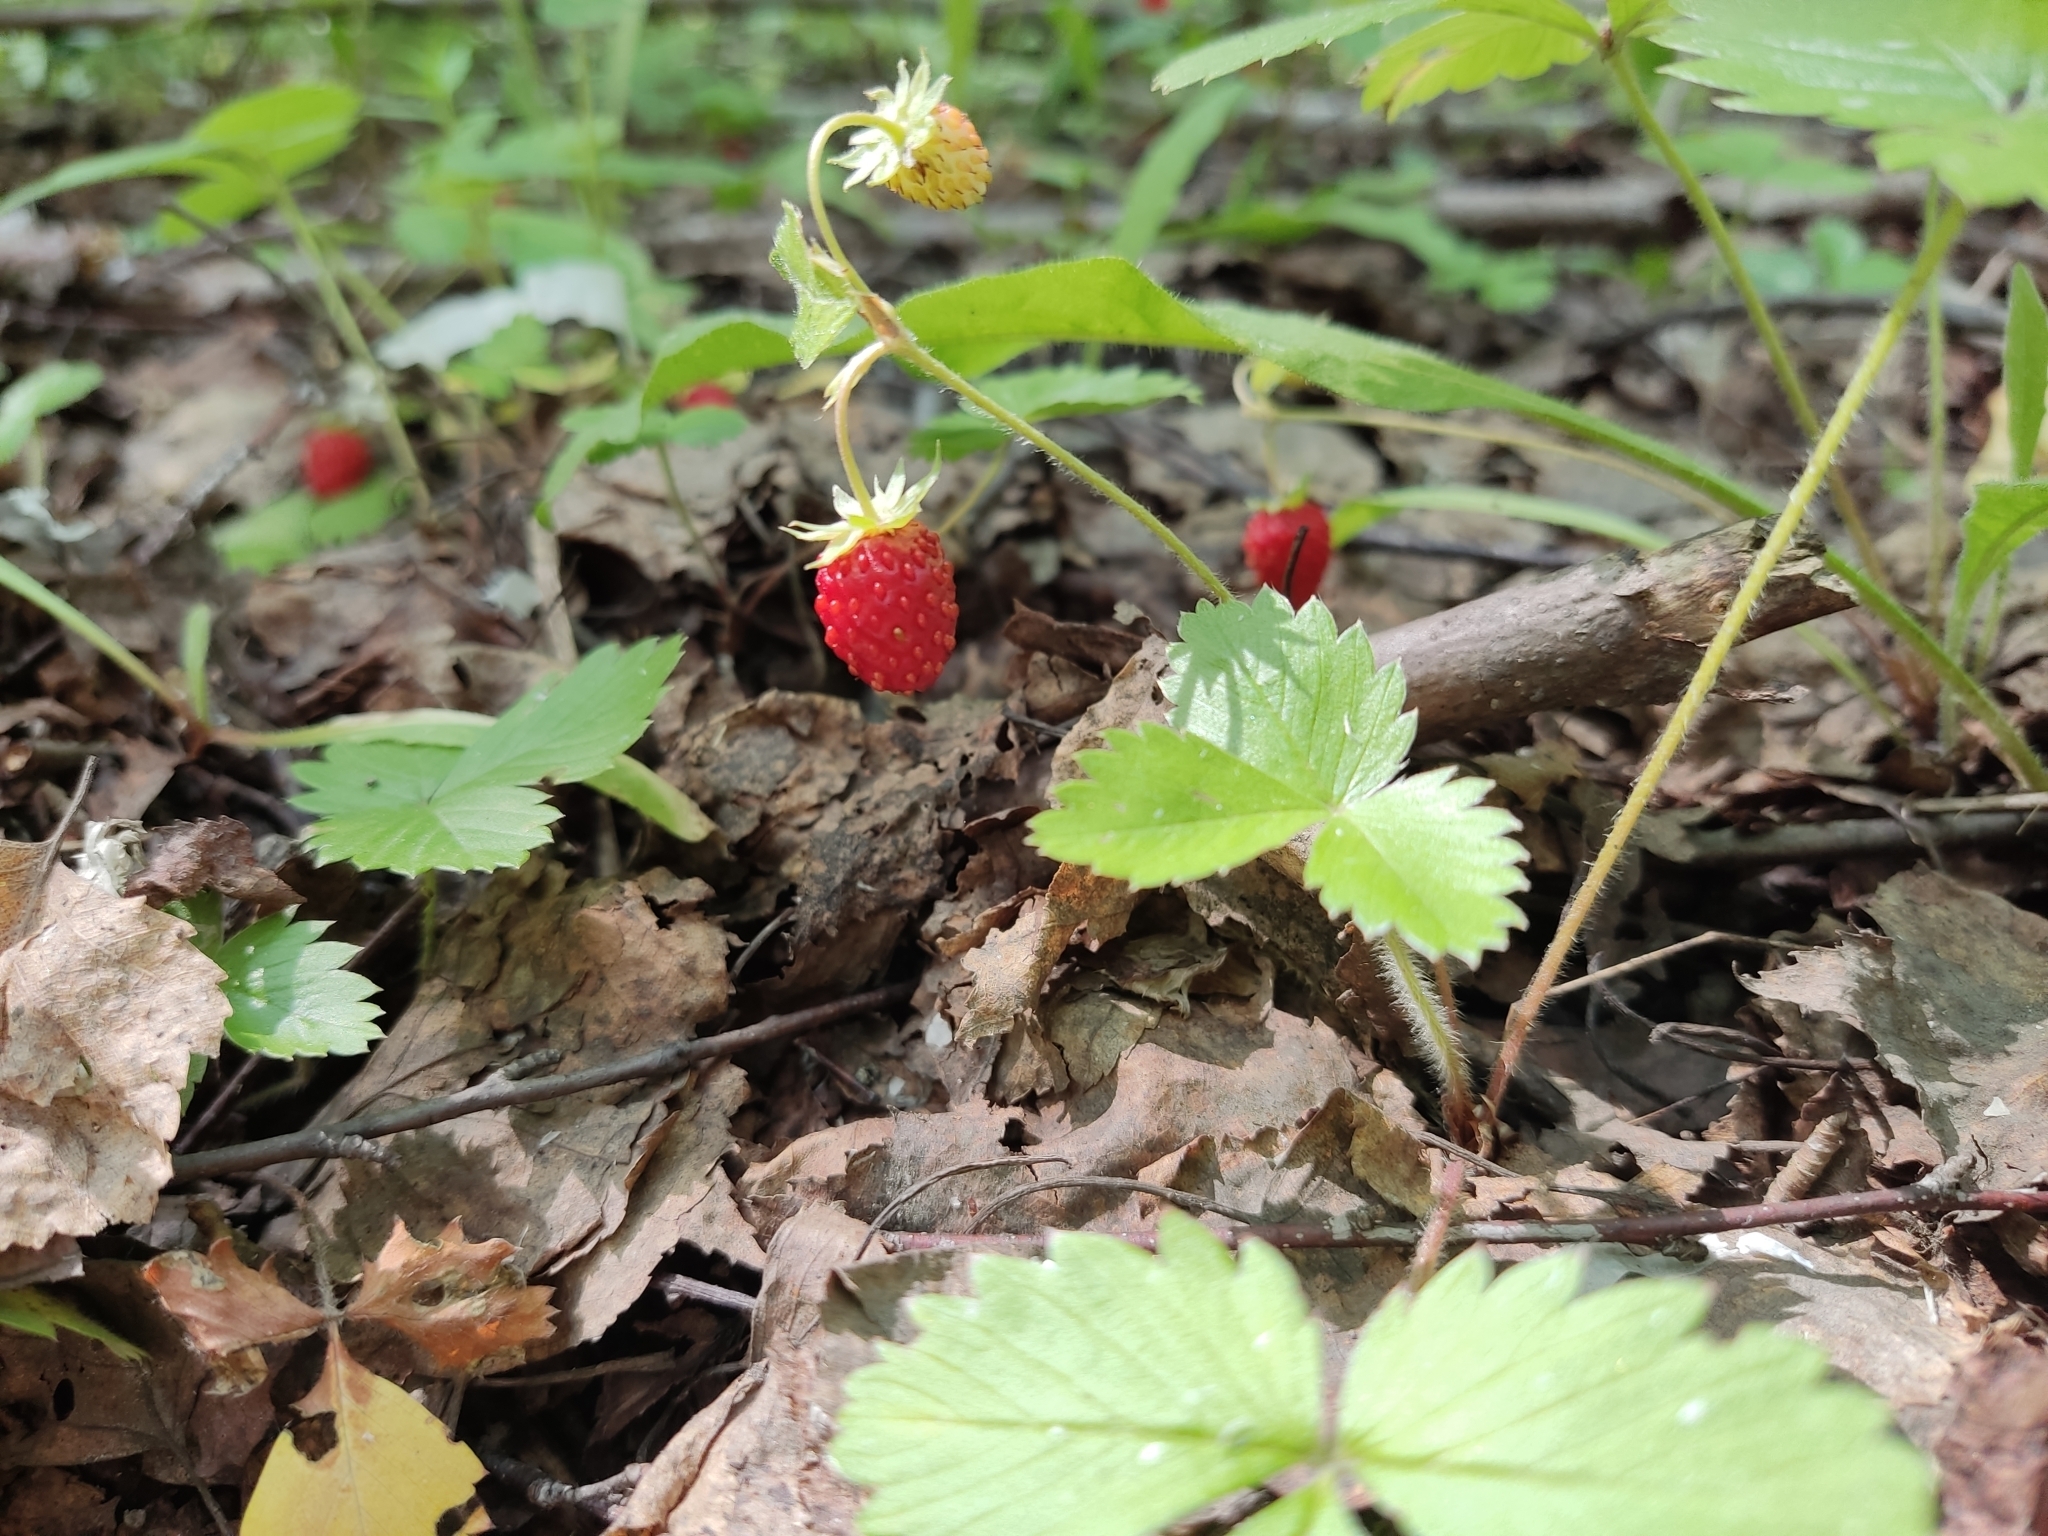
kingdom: Plantae
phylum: Tracheophyta
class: Magnoliopsida
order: Rosales
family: Rosaceae
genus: Fragaria
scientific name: Fragaria vesca
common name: Wild strawberry
